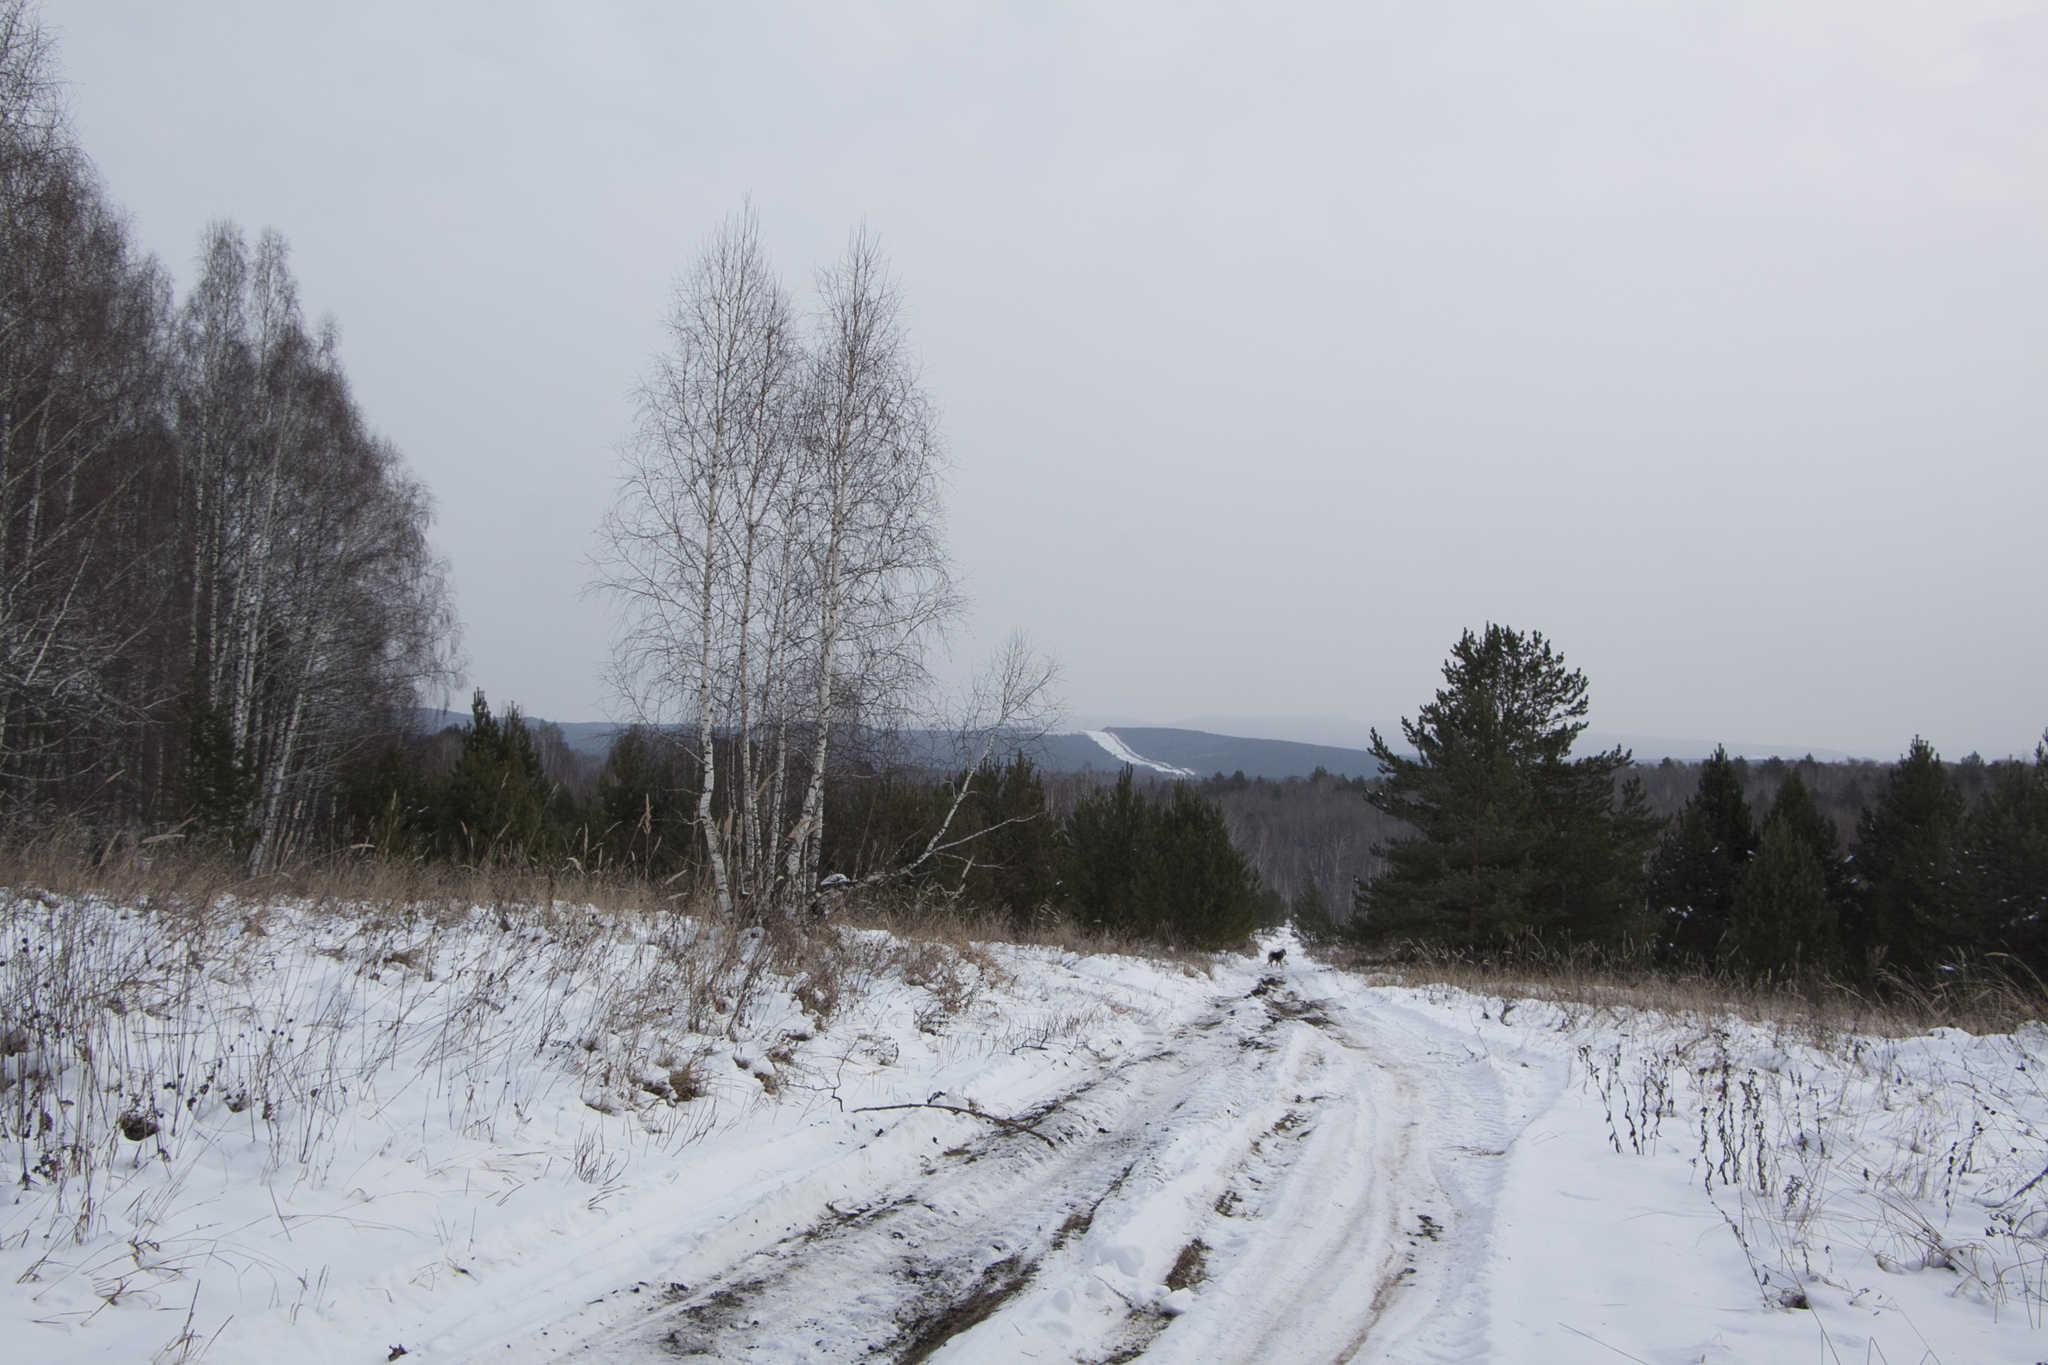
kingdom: Plantae
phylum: Tracheophyta
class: Pinopsida
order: Pinales
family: Pinaceae
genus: Pinus
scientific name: Pinus sylvestris
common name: Scots pine
